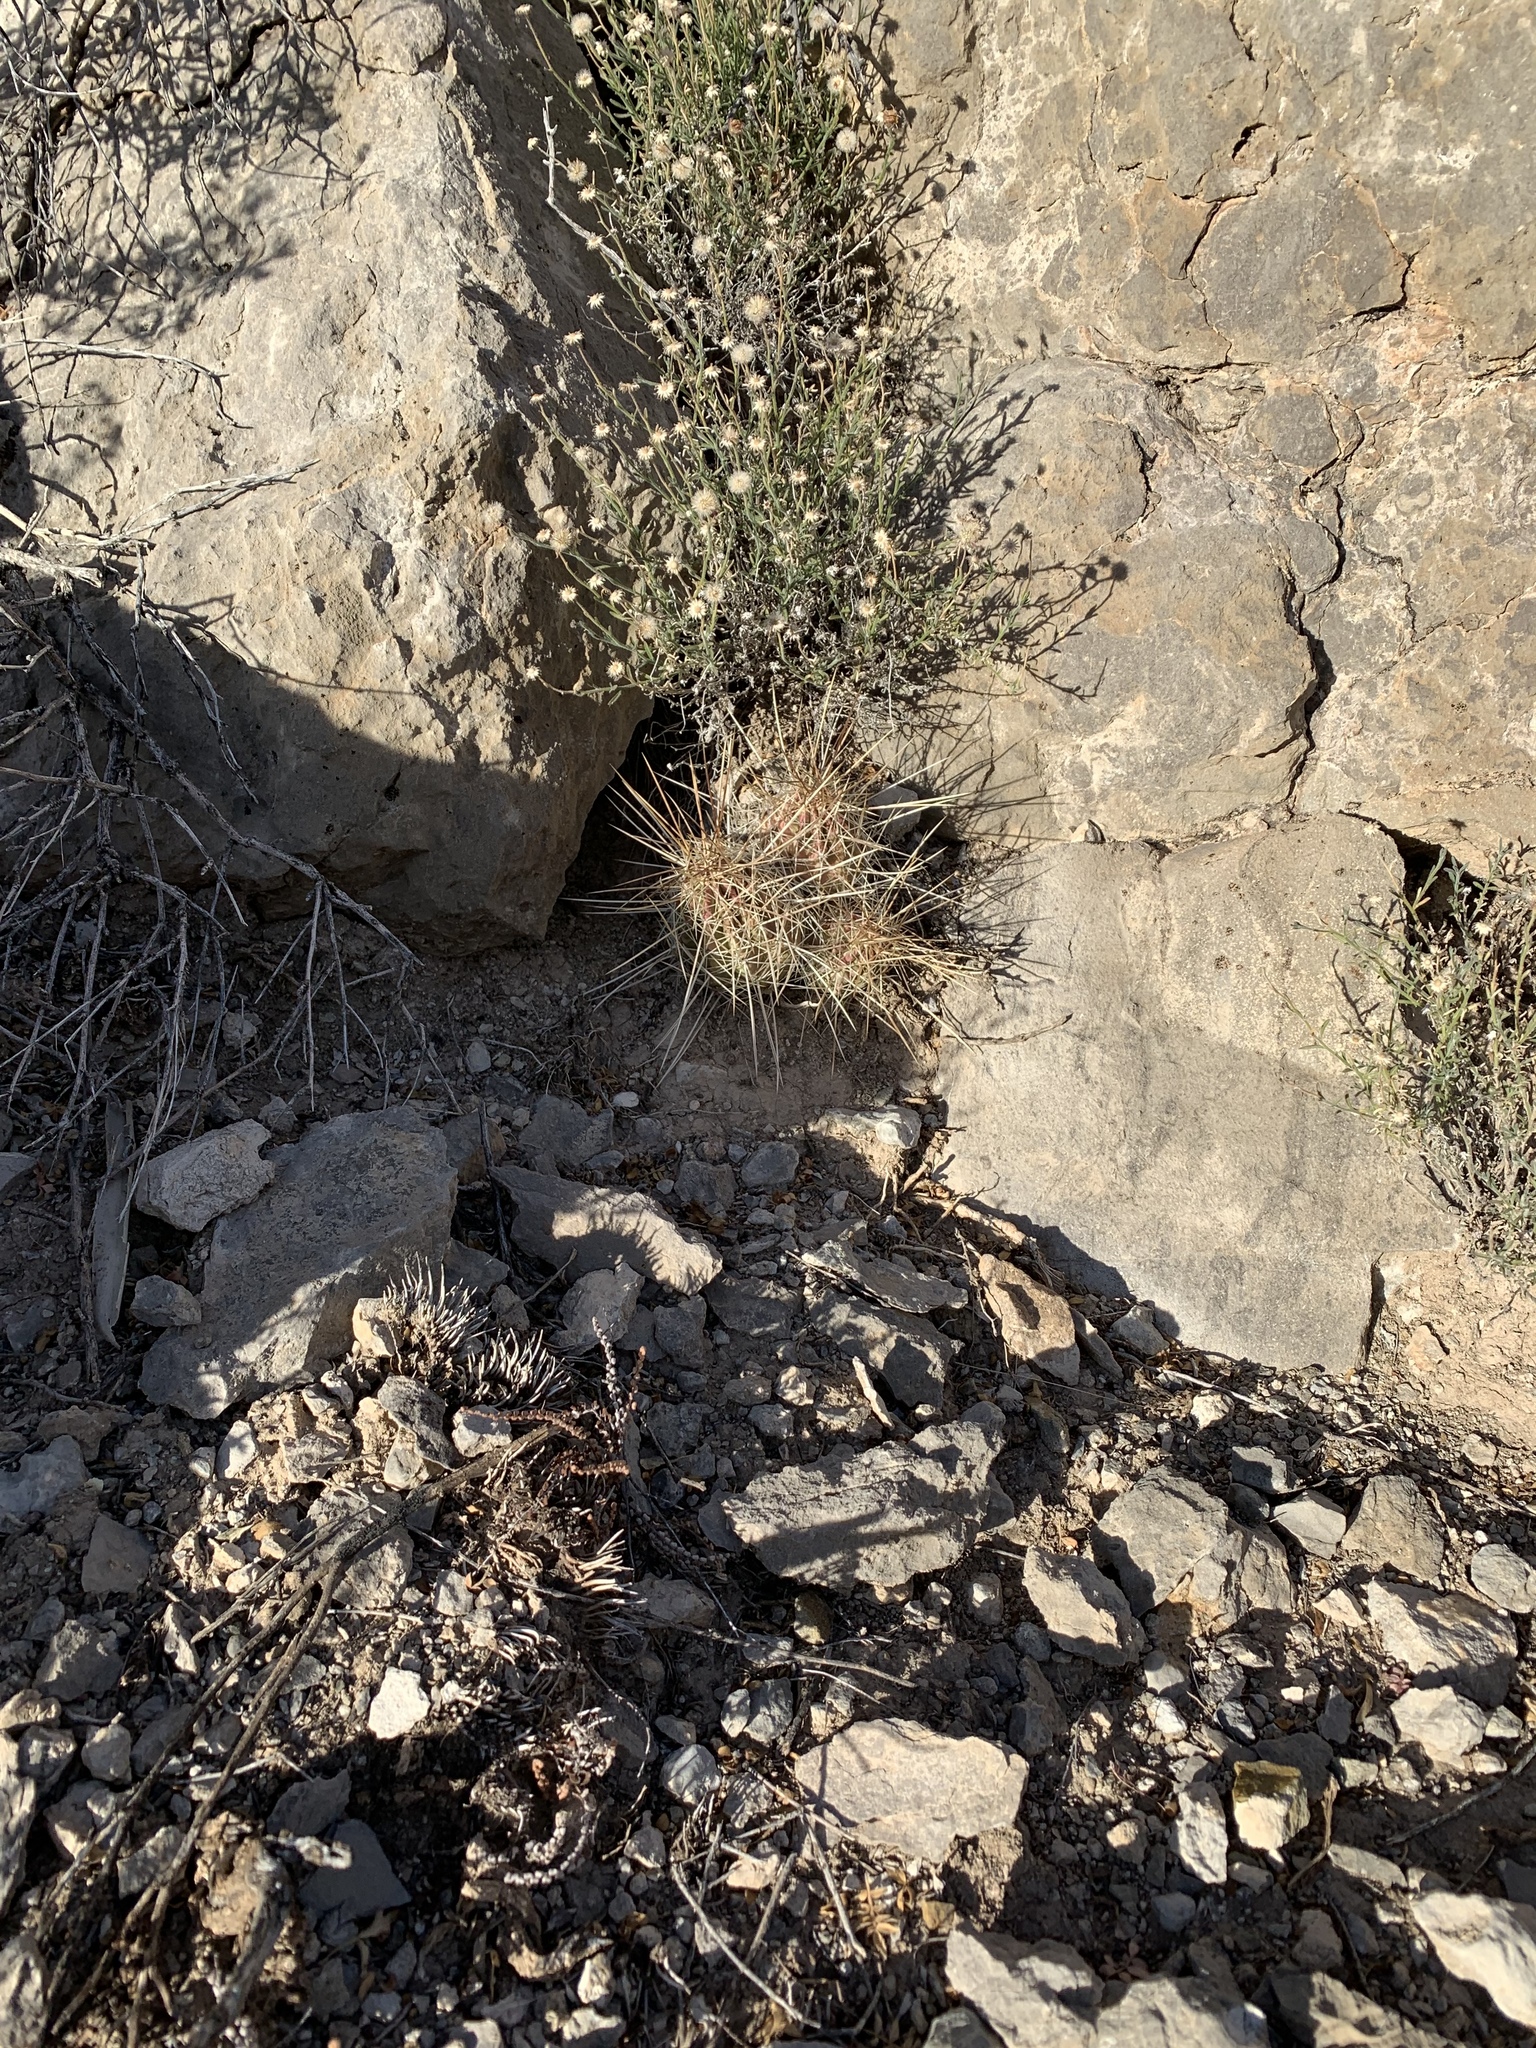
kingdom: Plantae
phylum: Tracheophyta
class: Magnoliopsida
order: Caryophyllales
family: Cactaceae
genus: Echinocereus
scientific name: Echinocereus stramineus
